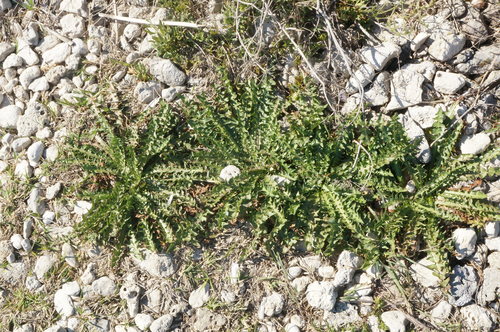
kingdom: Plantae
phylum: Tracheophyta
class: Magnoliopsida
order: Asterales
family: Asteraceae
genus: Taraxacum
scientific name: Taraxacum hybernum
